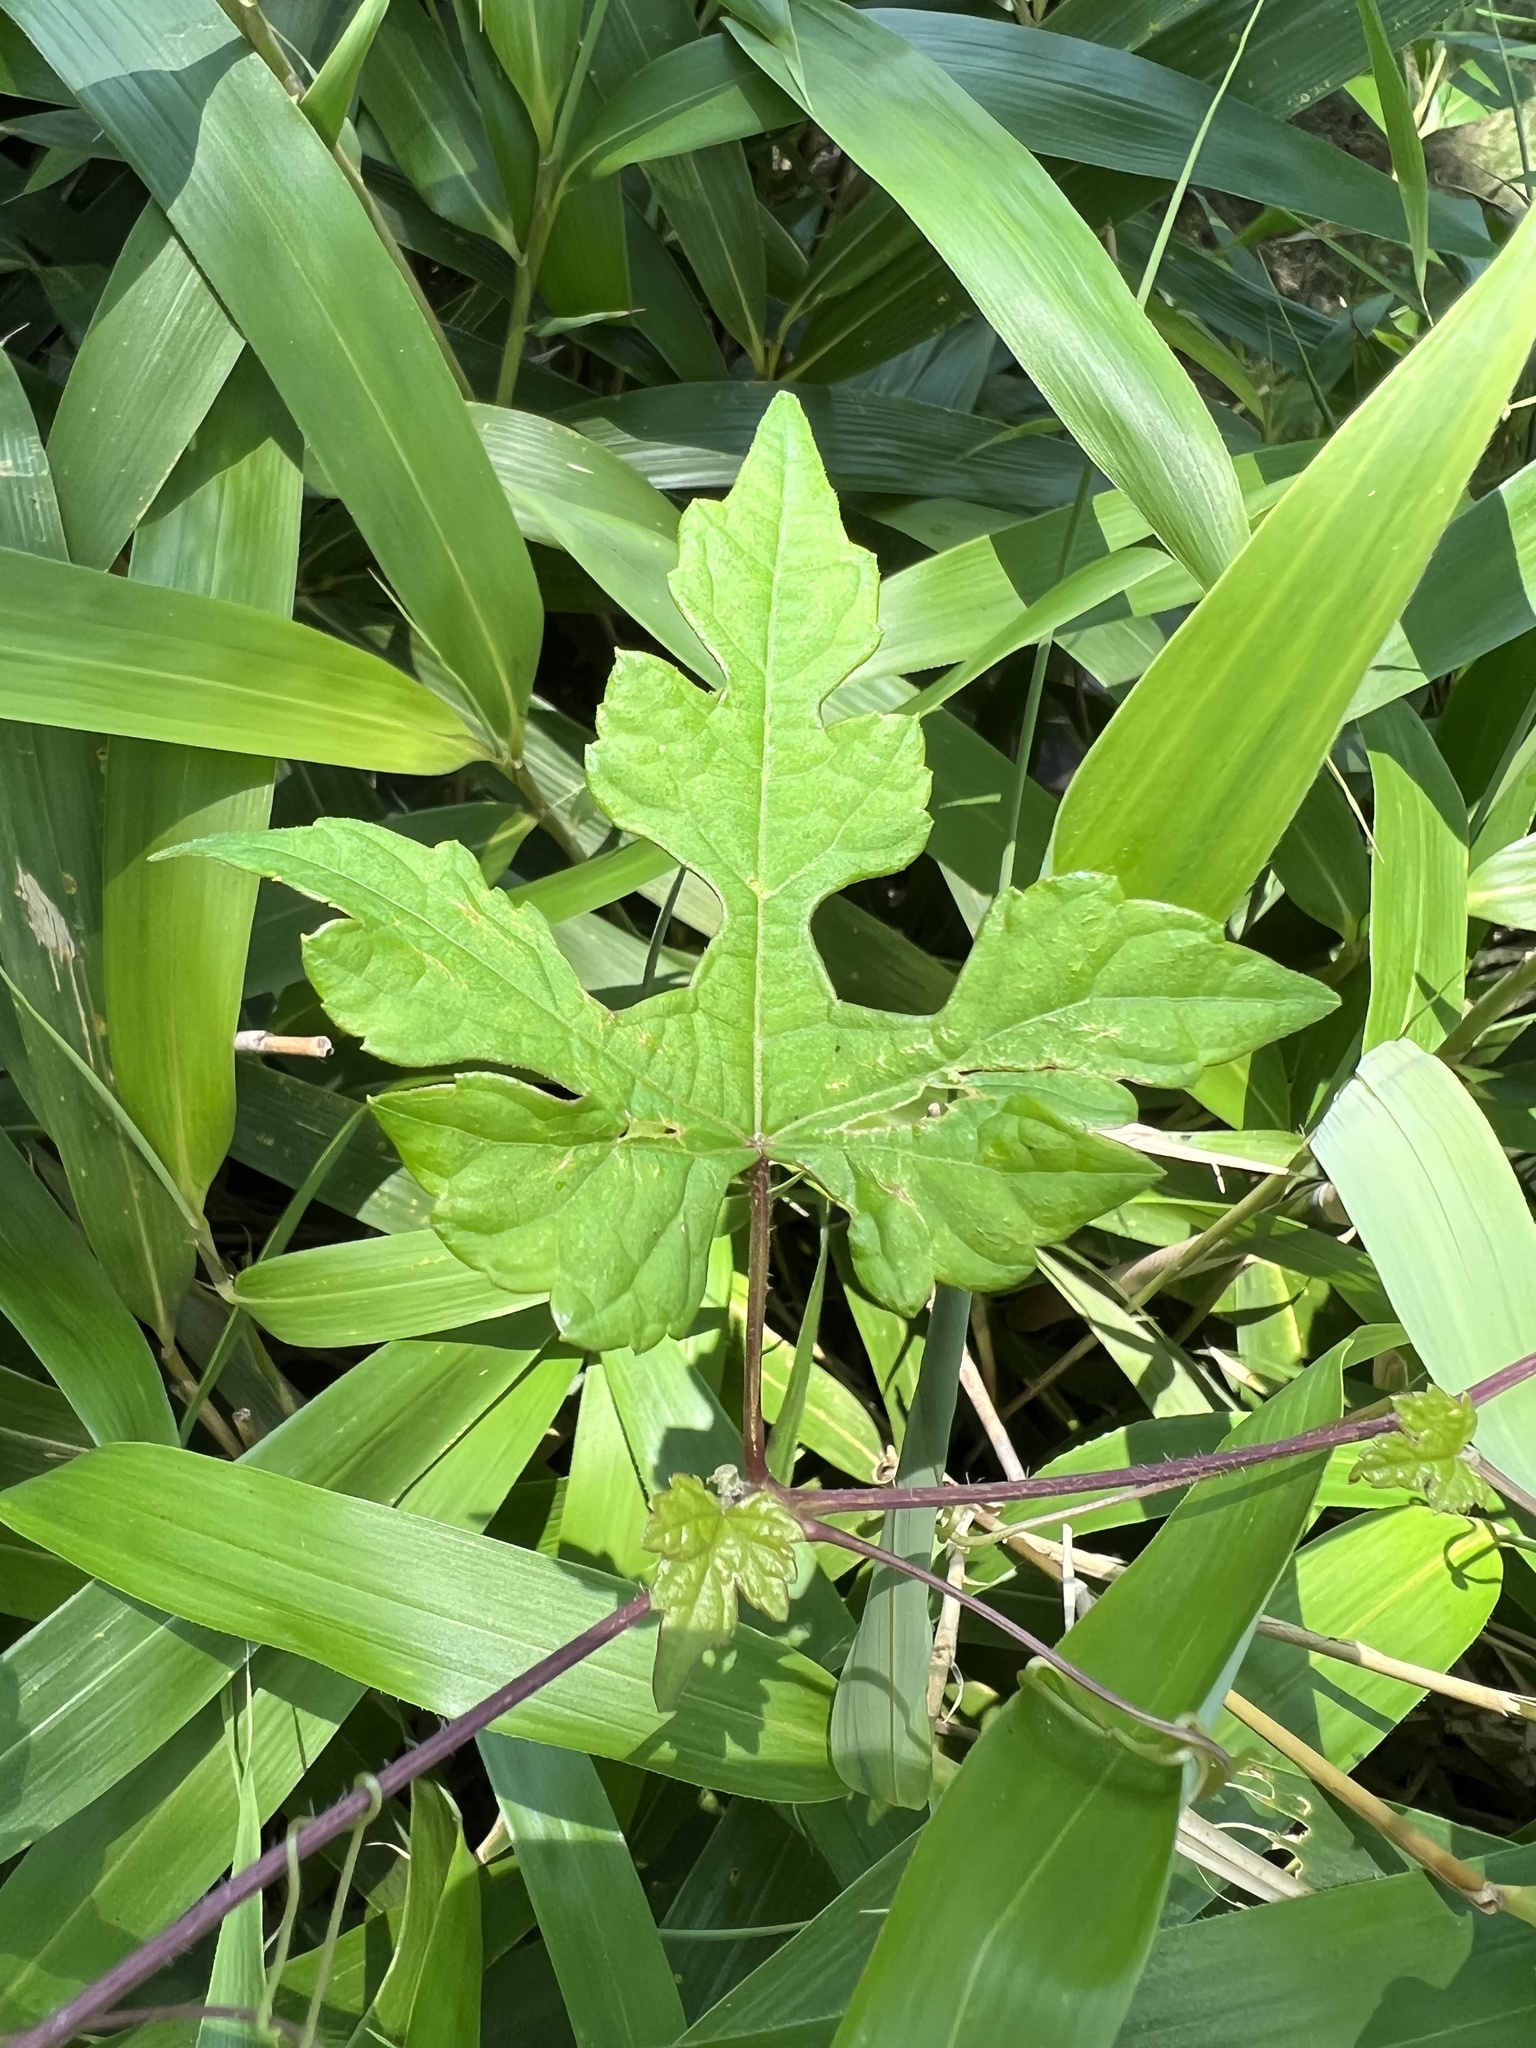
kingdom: Plantae
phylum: Tracheophyta
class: Magnoliopsida
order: Vitales
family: Vitaceae
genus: Ampelopsis
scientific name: Ampelopsis glandulosa
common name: Amur peppervine
